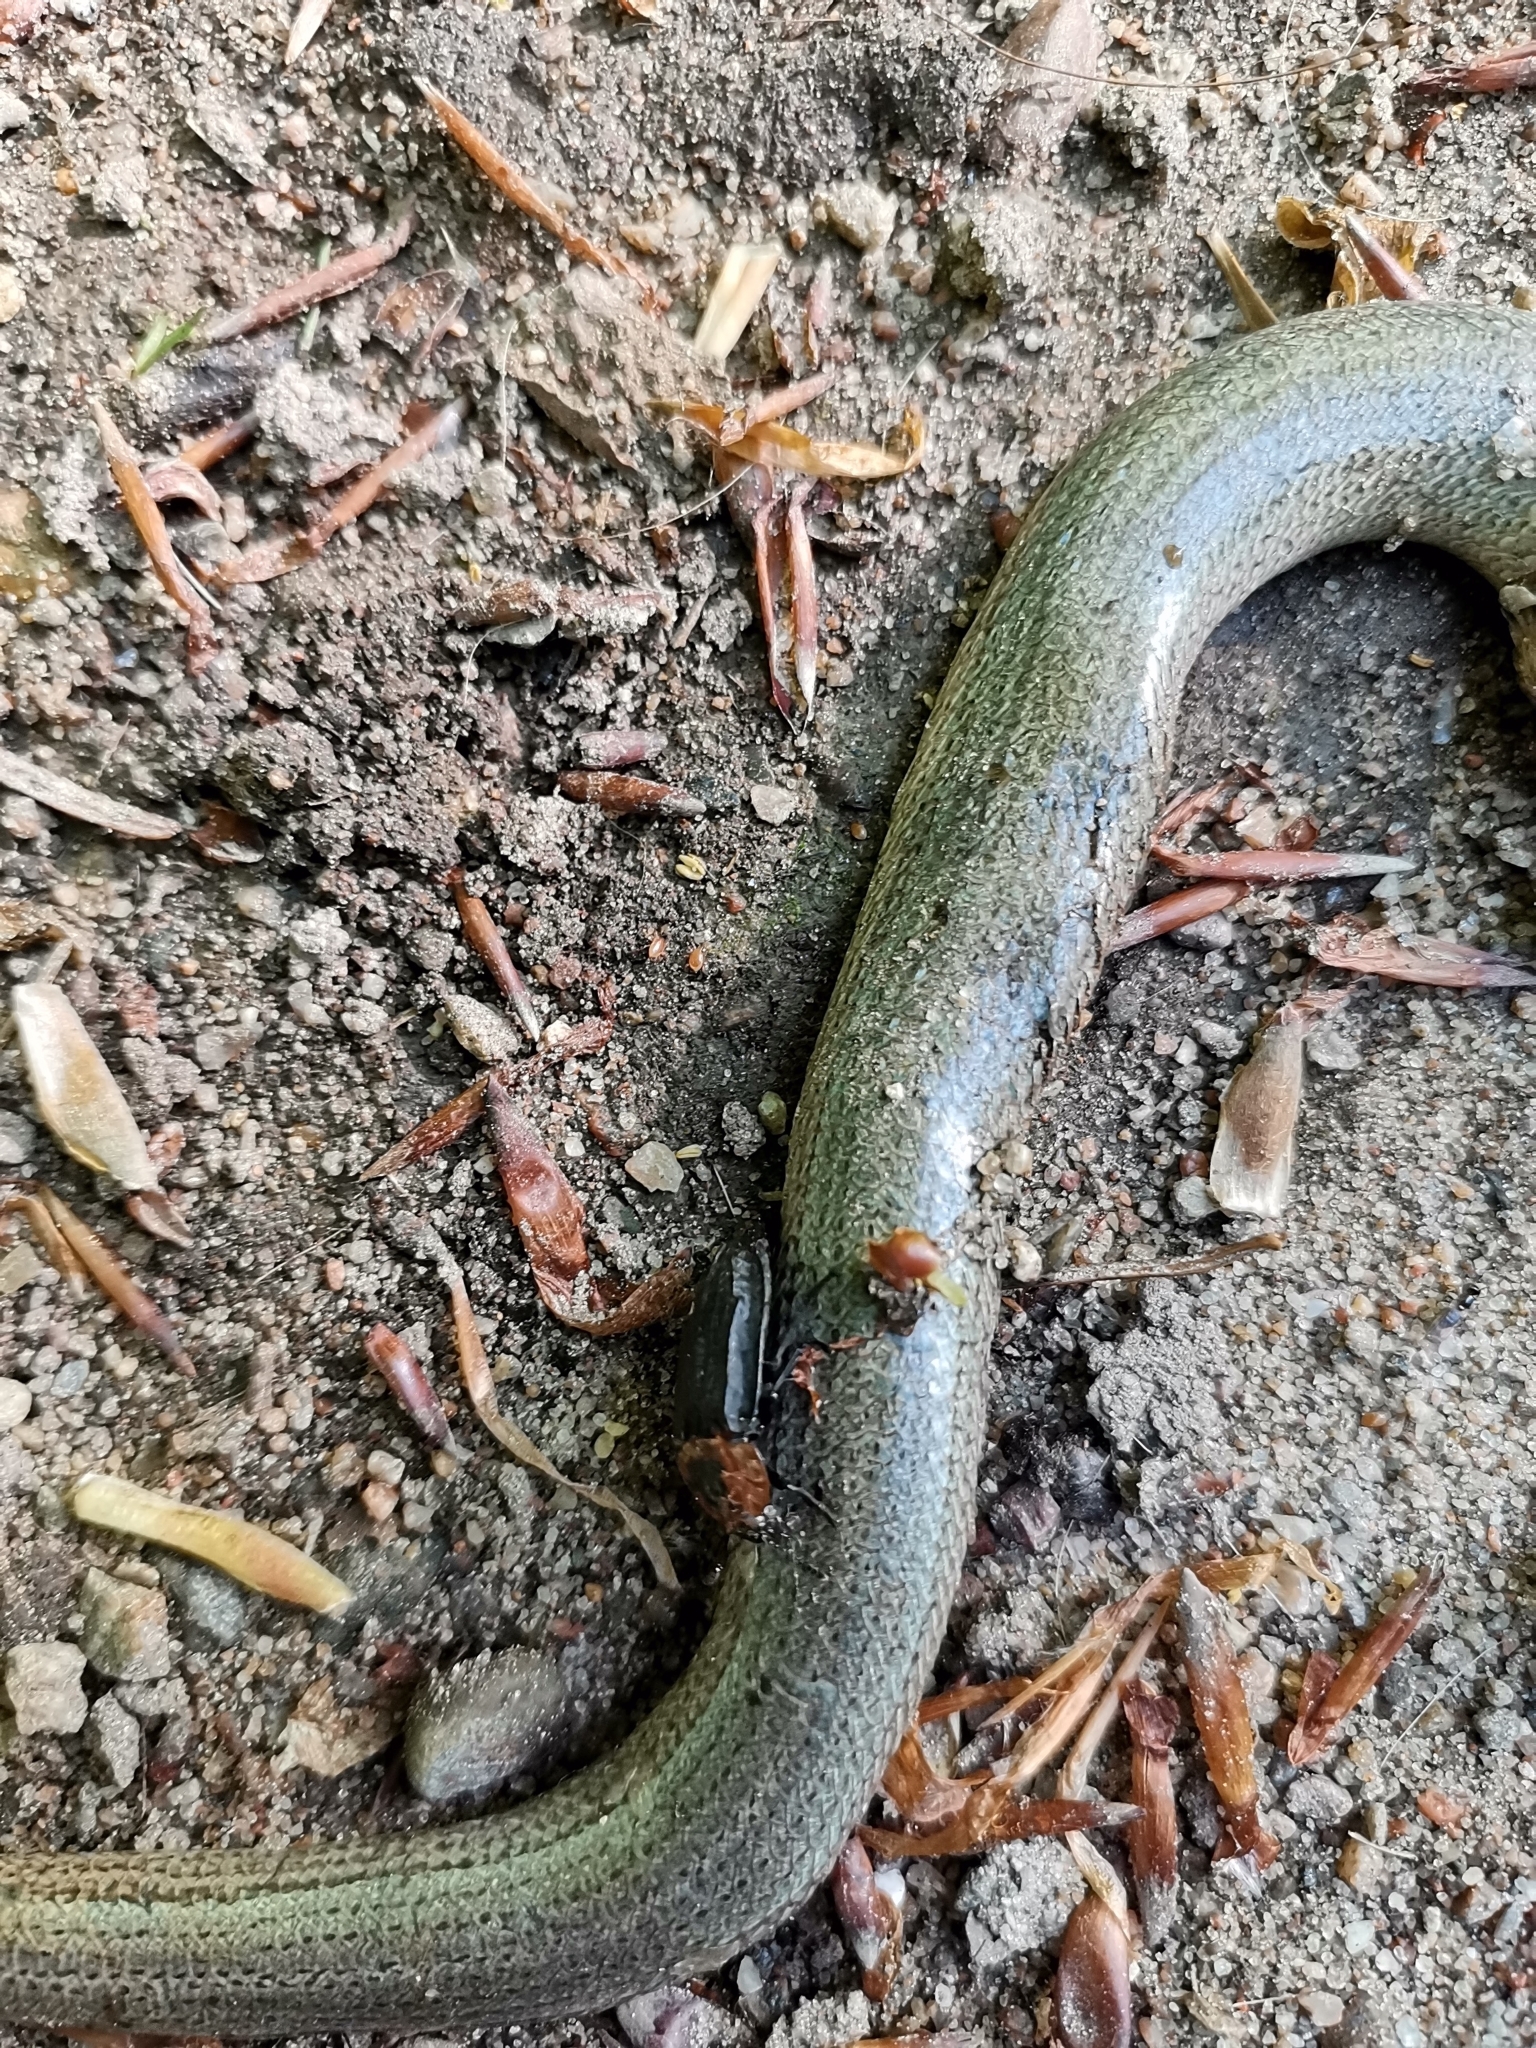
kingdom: Animalia
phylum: Arthropoda
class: Insecta
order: Coleoptera
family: Staphylinidae
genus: Oiceoptoma
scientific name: Oiceoptoma thoracicum
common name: Red-breasted carrion beetle
